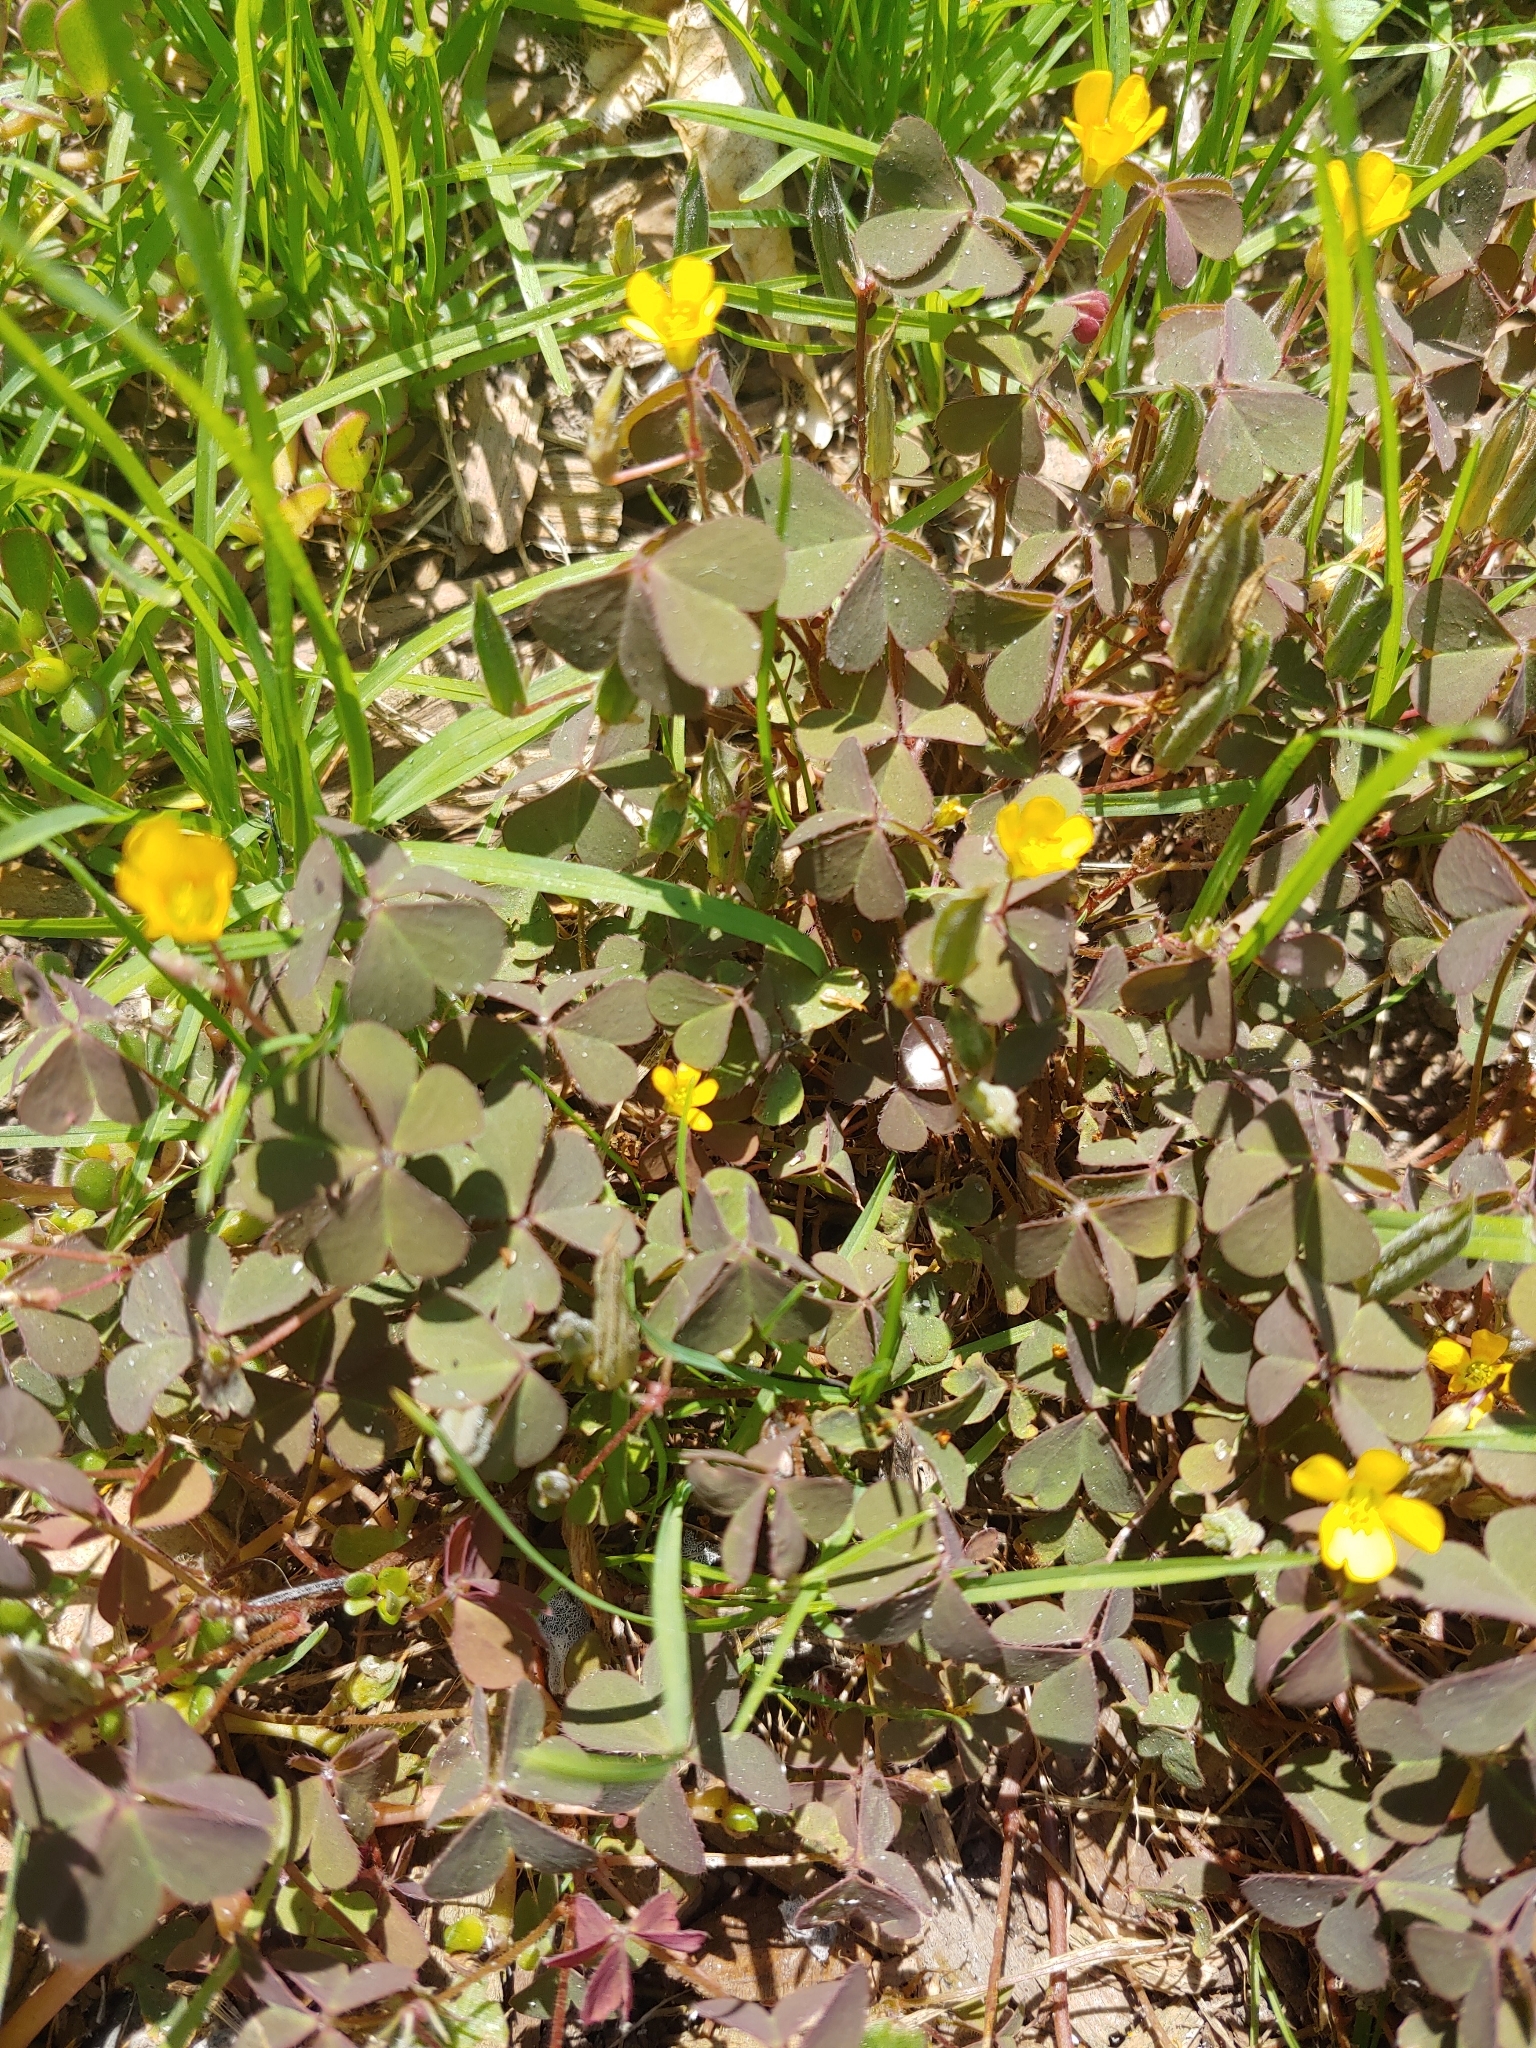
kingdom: Plantae
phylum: Tracheophyta
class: Magnoliopsida
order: Oxalidales
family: Oxalidaceae
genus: Oxalis
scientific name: Oxalis corniculata
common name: Procumbent yellow-sorrel
